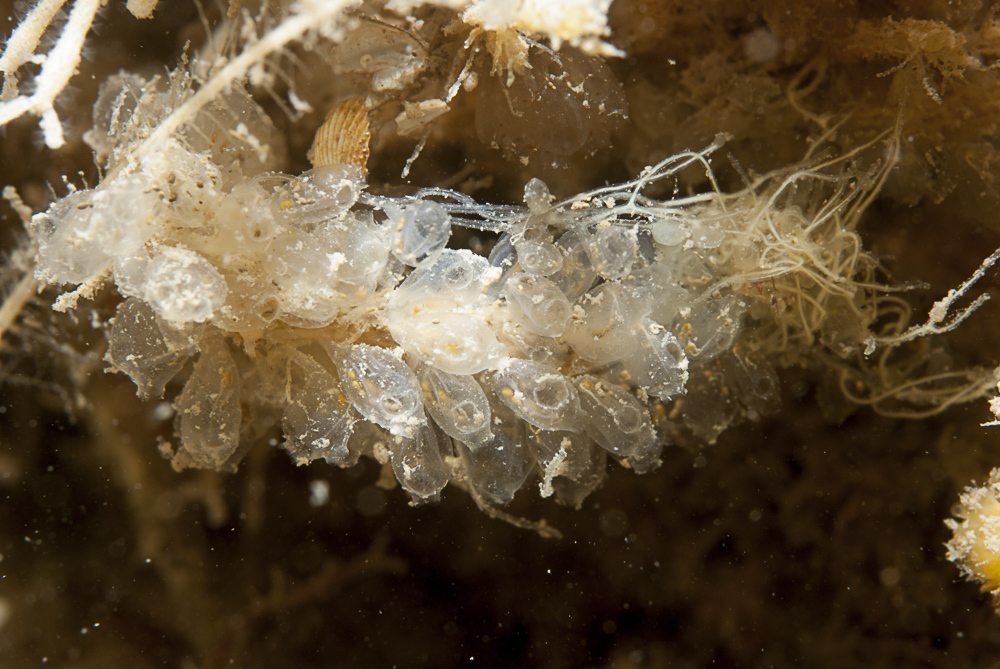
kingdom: Animalia
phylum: Chordata
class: Ascidiacea
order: Phlebobranchia
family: Perophoridae
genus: Perophora
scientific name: Perophora listeri
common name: Dwarf ascidian
